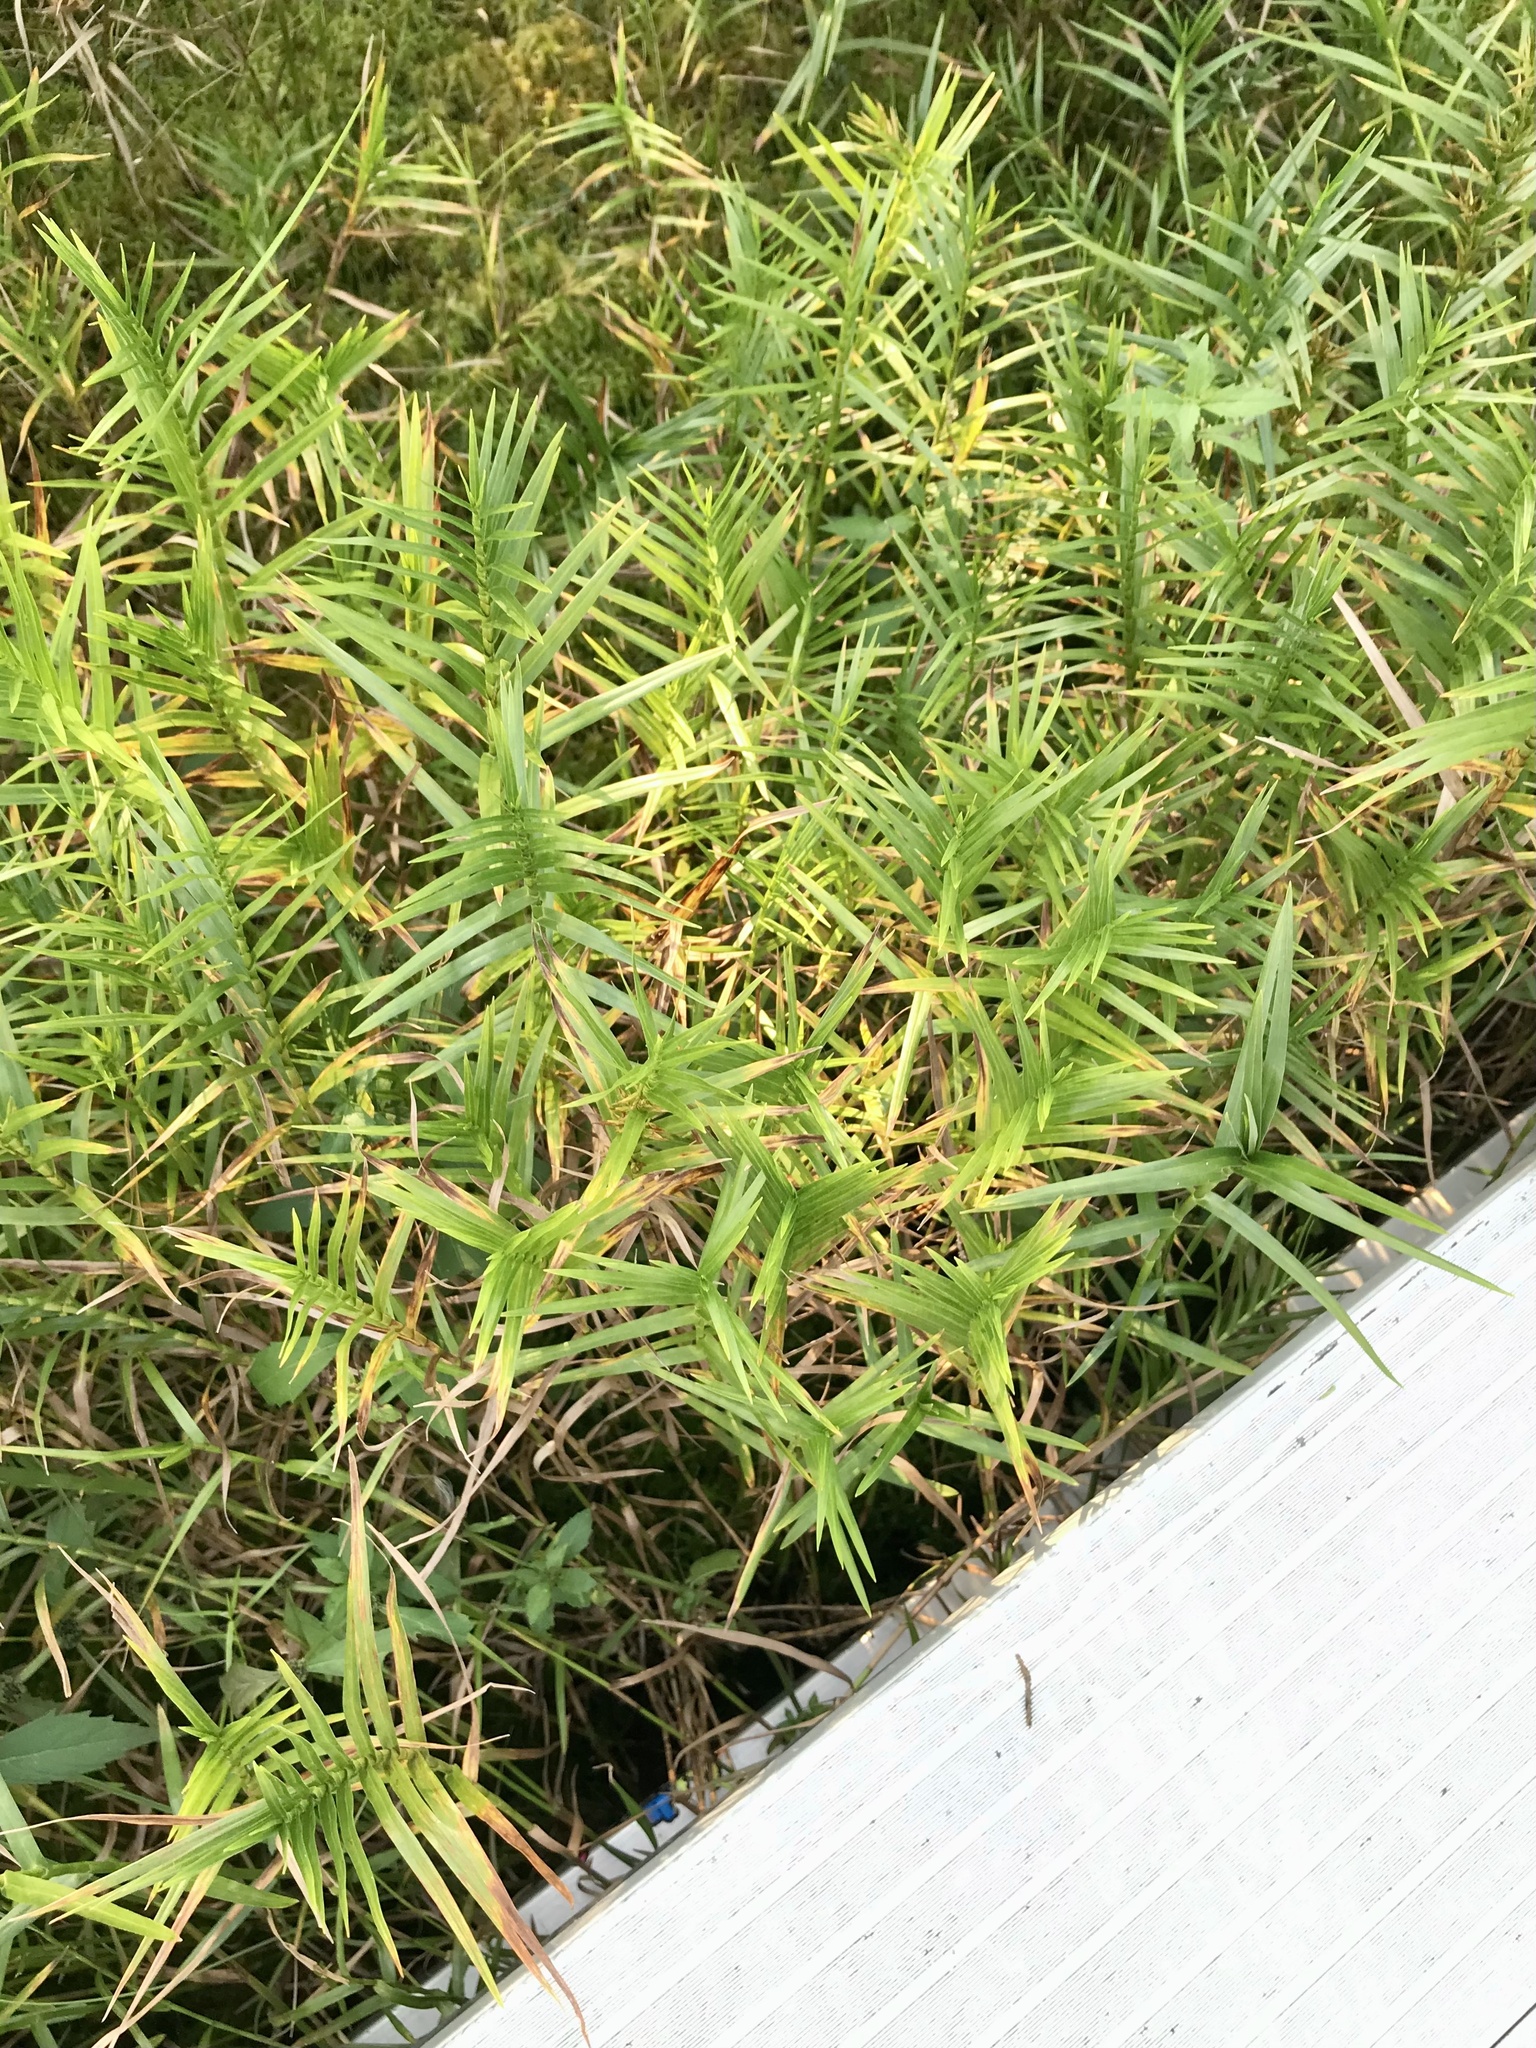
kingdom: Plantae
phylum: Tracheophyta
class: Liliopsida
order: Poales
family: Cyperaceae
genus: Dulichium
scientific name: Dulichium arundinaceum
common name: Three-way sedge
